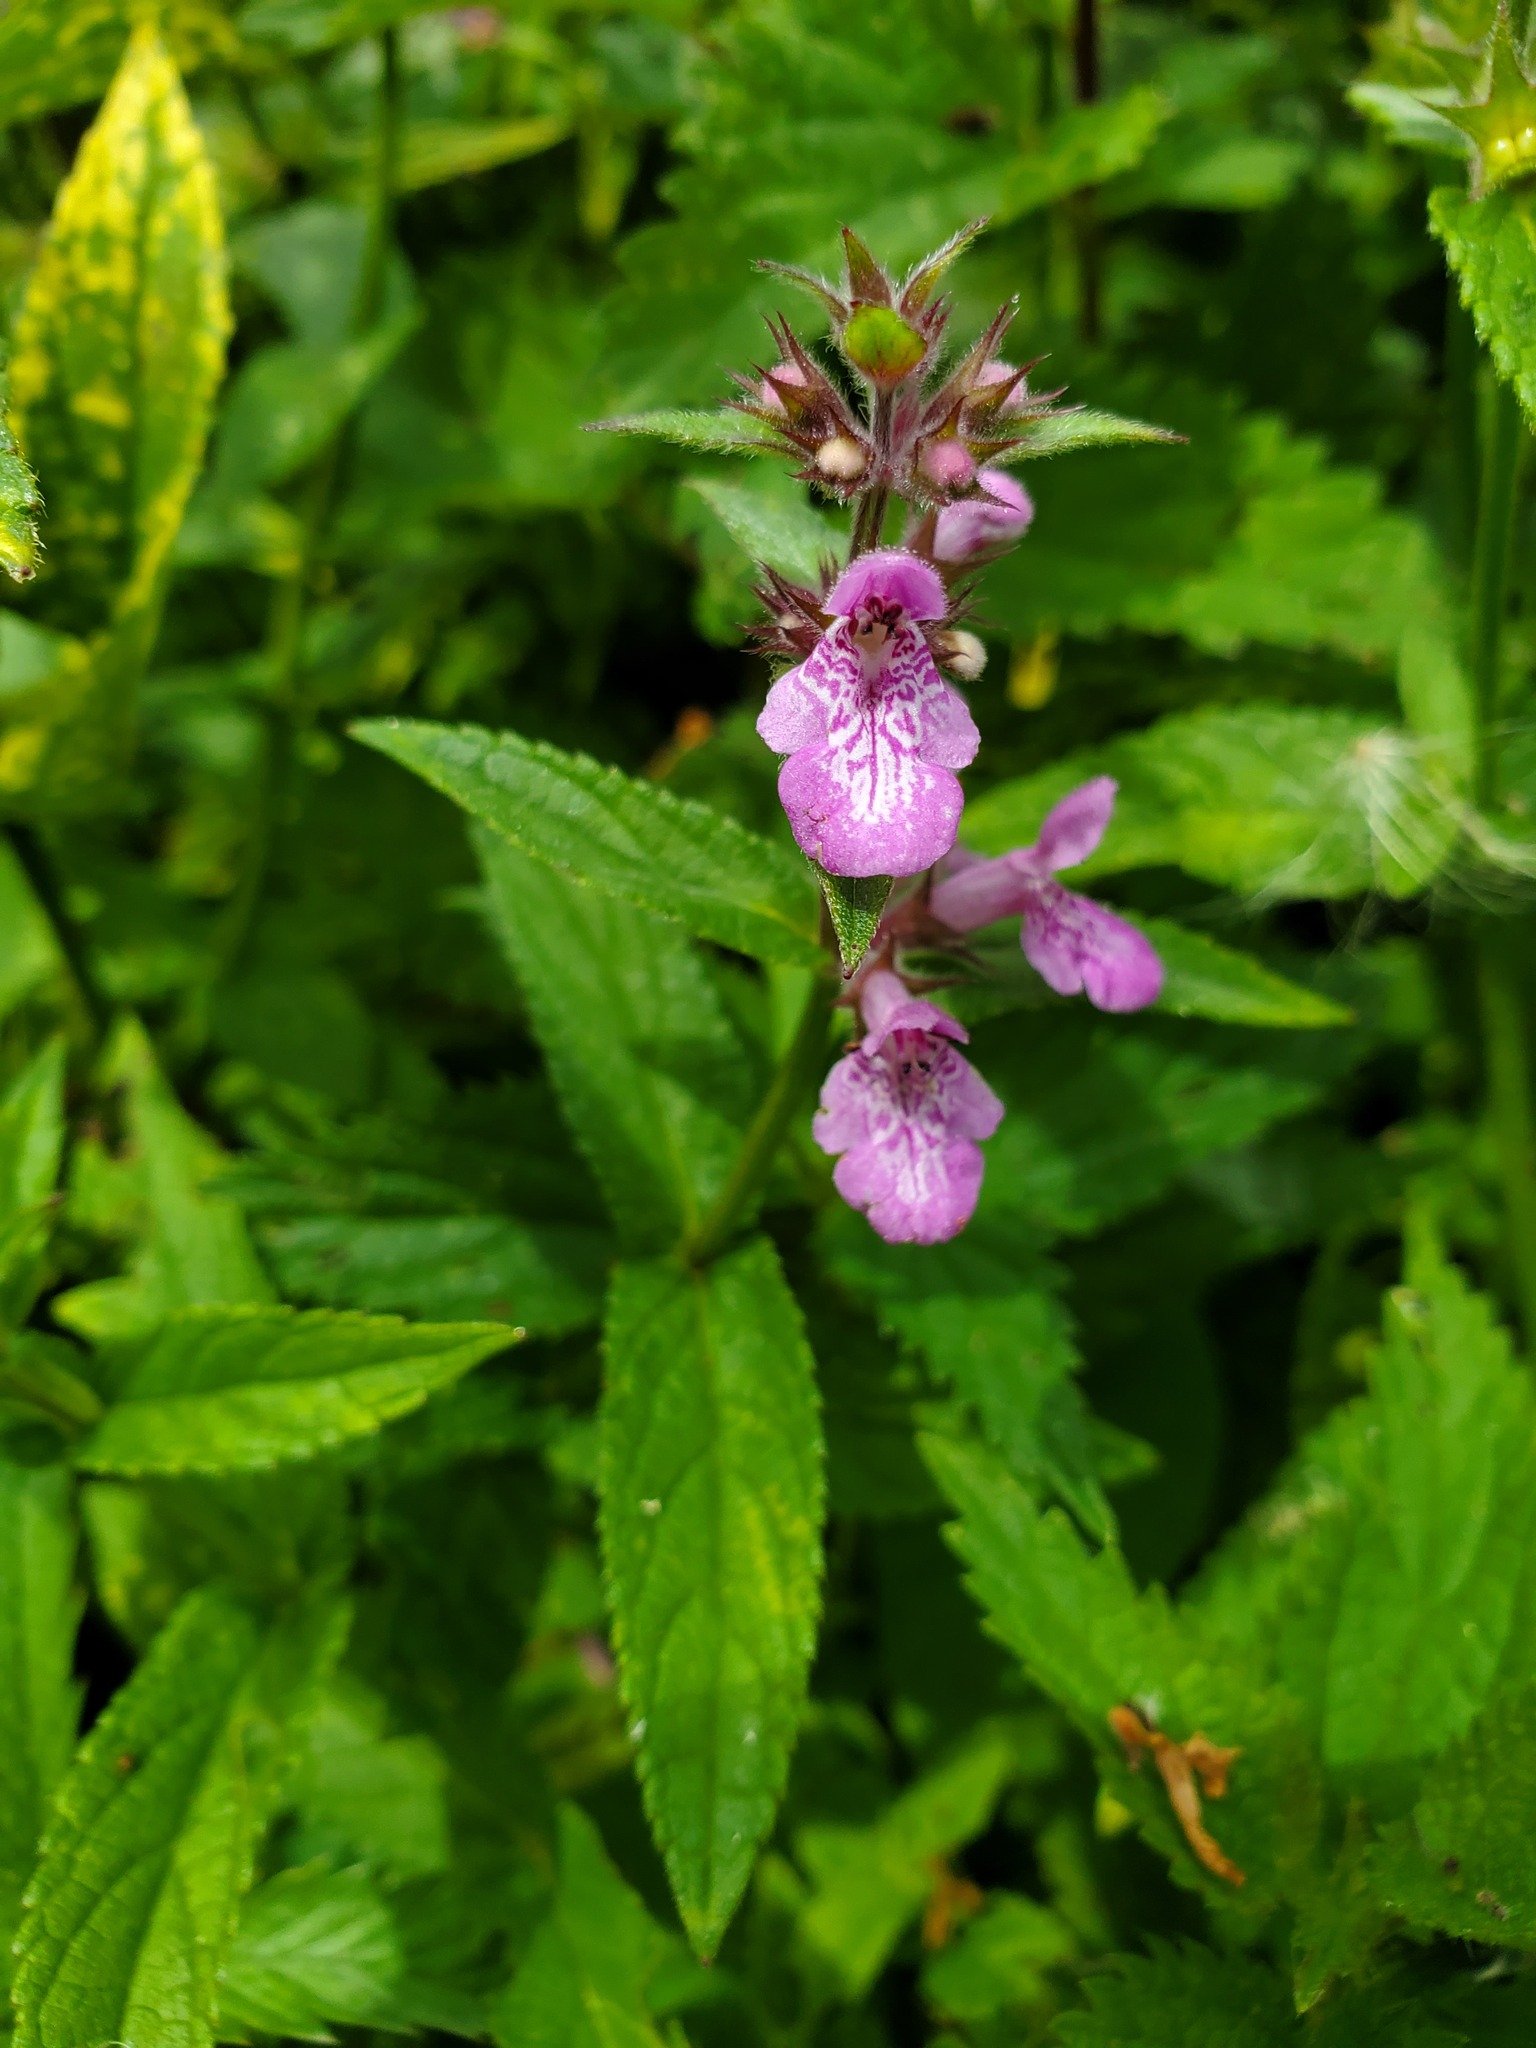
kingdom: Plantae
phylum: Tracheophyta
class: Magnoliopsida
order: Lamiales
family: Lamiaceae
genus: Stachys
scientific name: Stachys palustris
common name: Marsh woundwort
